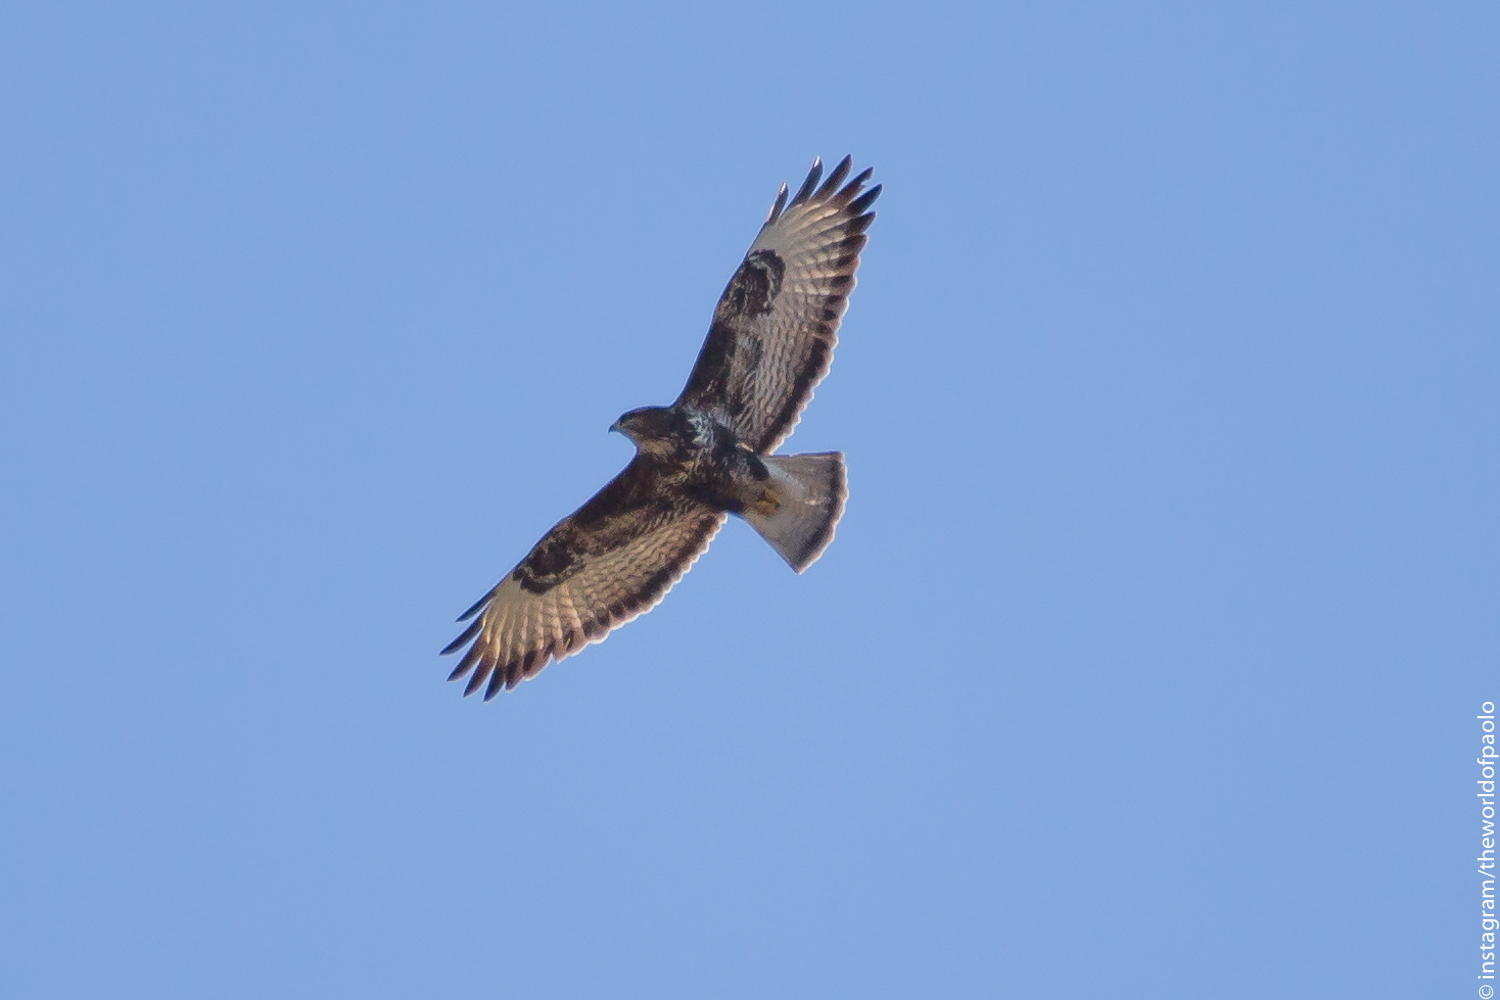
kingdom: Animalia
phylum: Chordata
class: Aves
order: Accipitriformes
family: Accipitridae
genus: Buteo
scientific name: Buteo buteo
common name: Common buzzard
